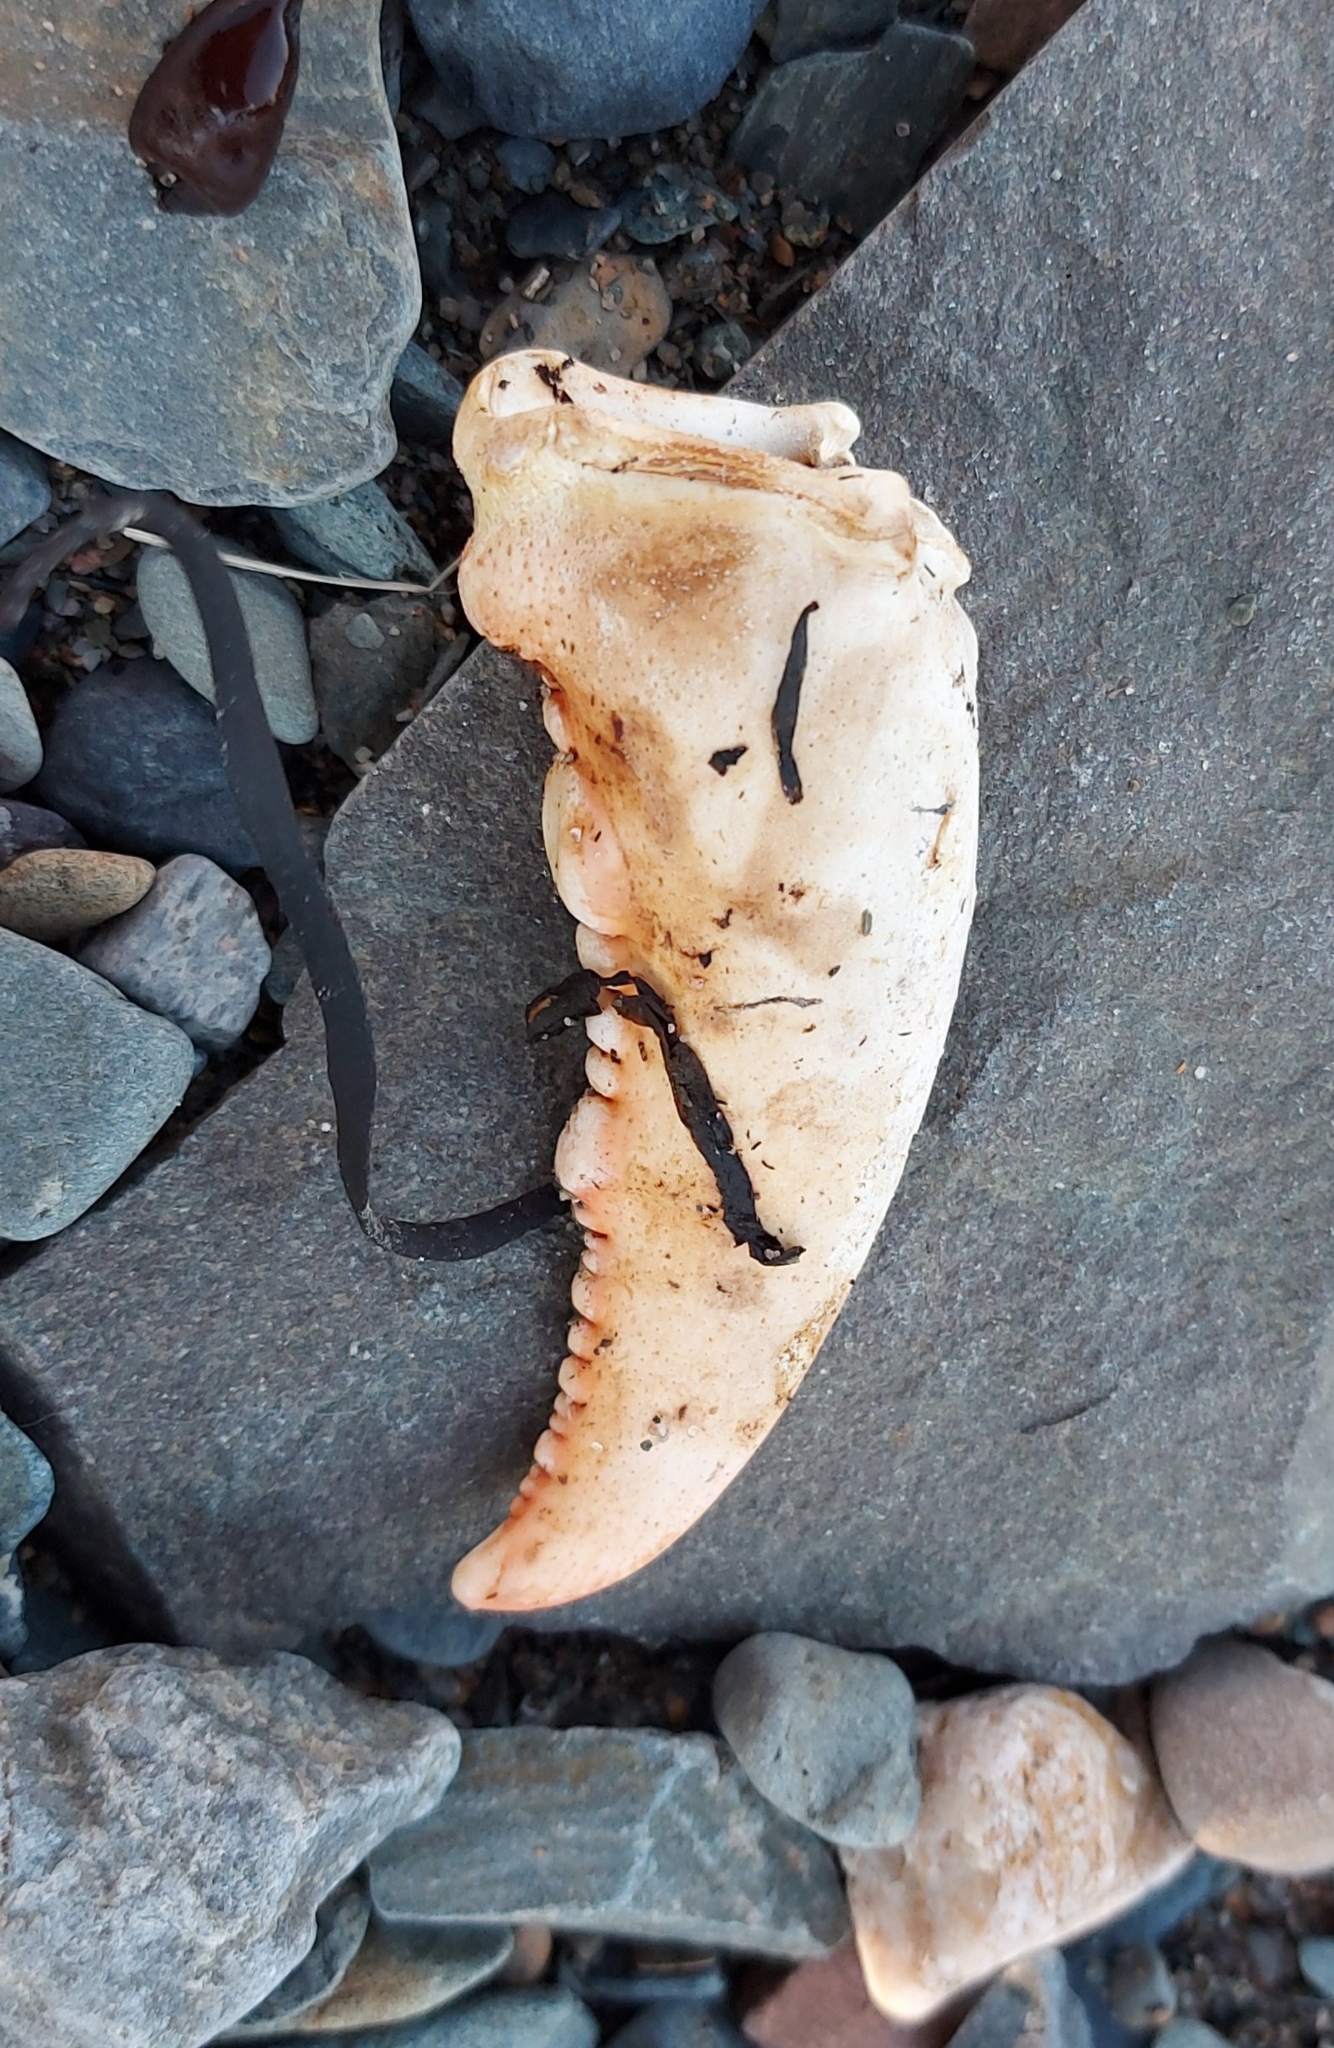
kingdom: Animalia
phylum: Arthropoda
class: Malacostraca
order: Decapoda
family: Nephropidae
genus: Homarus
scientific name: Homarus americanus
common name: American lobster
